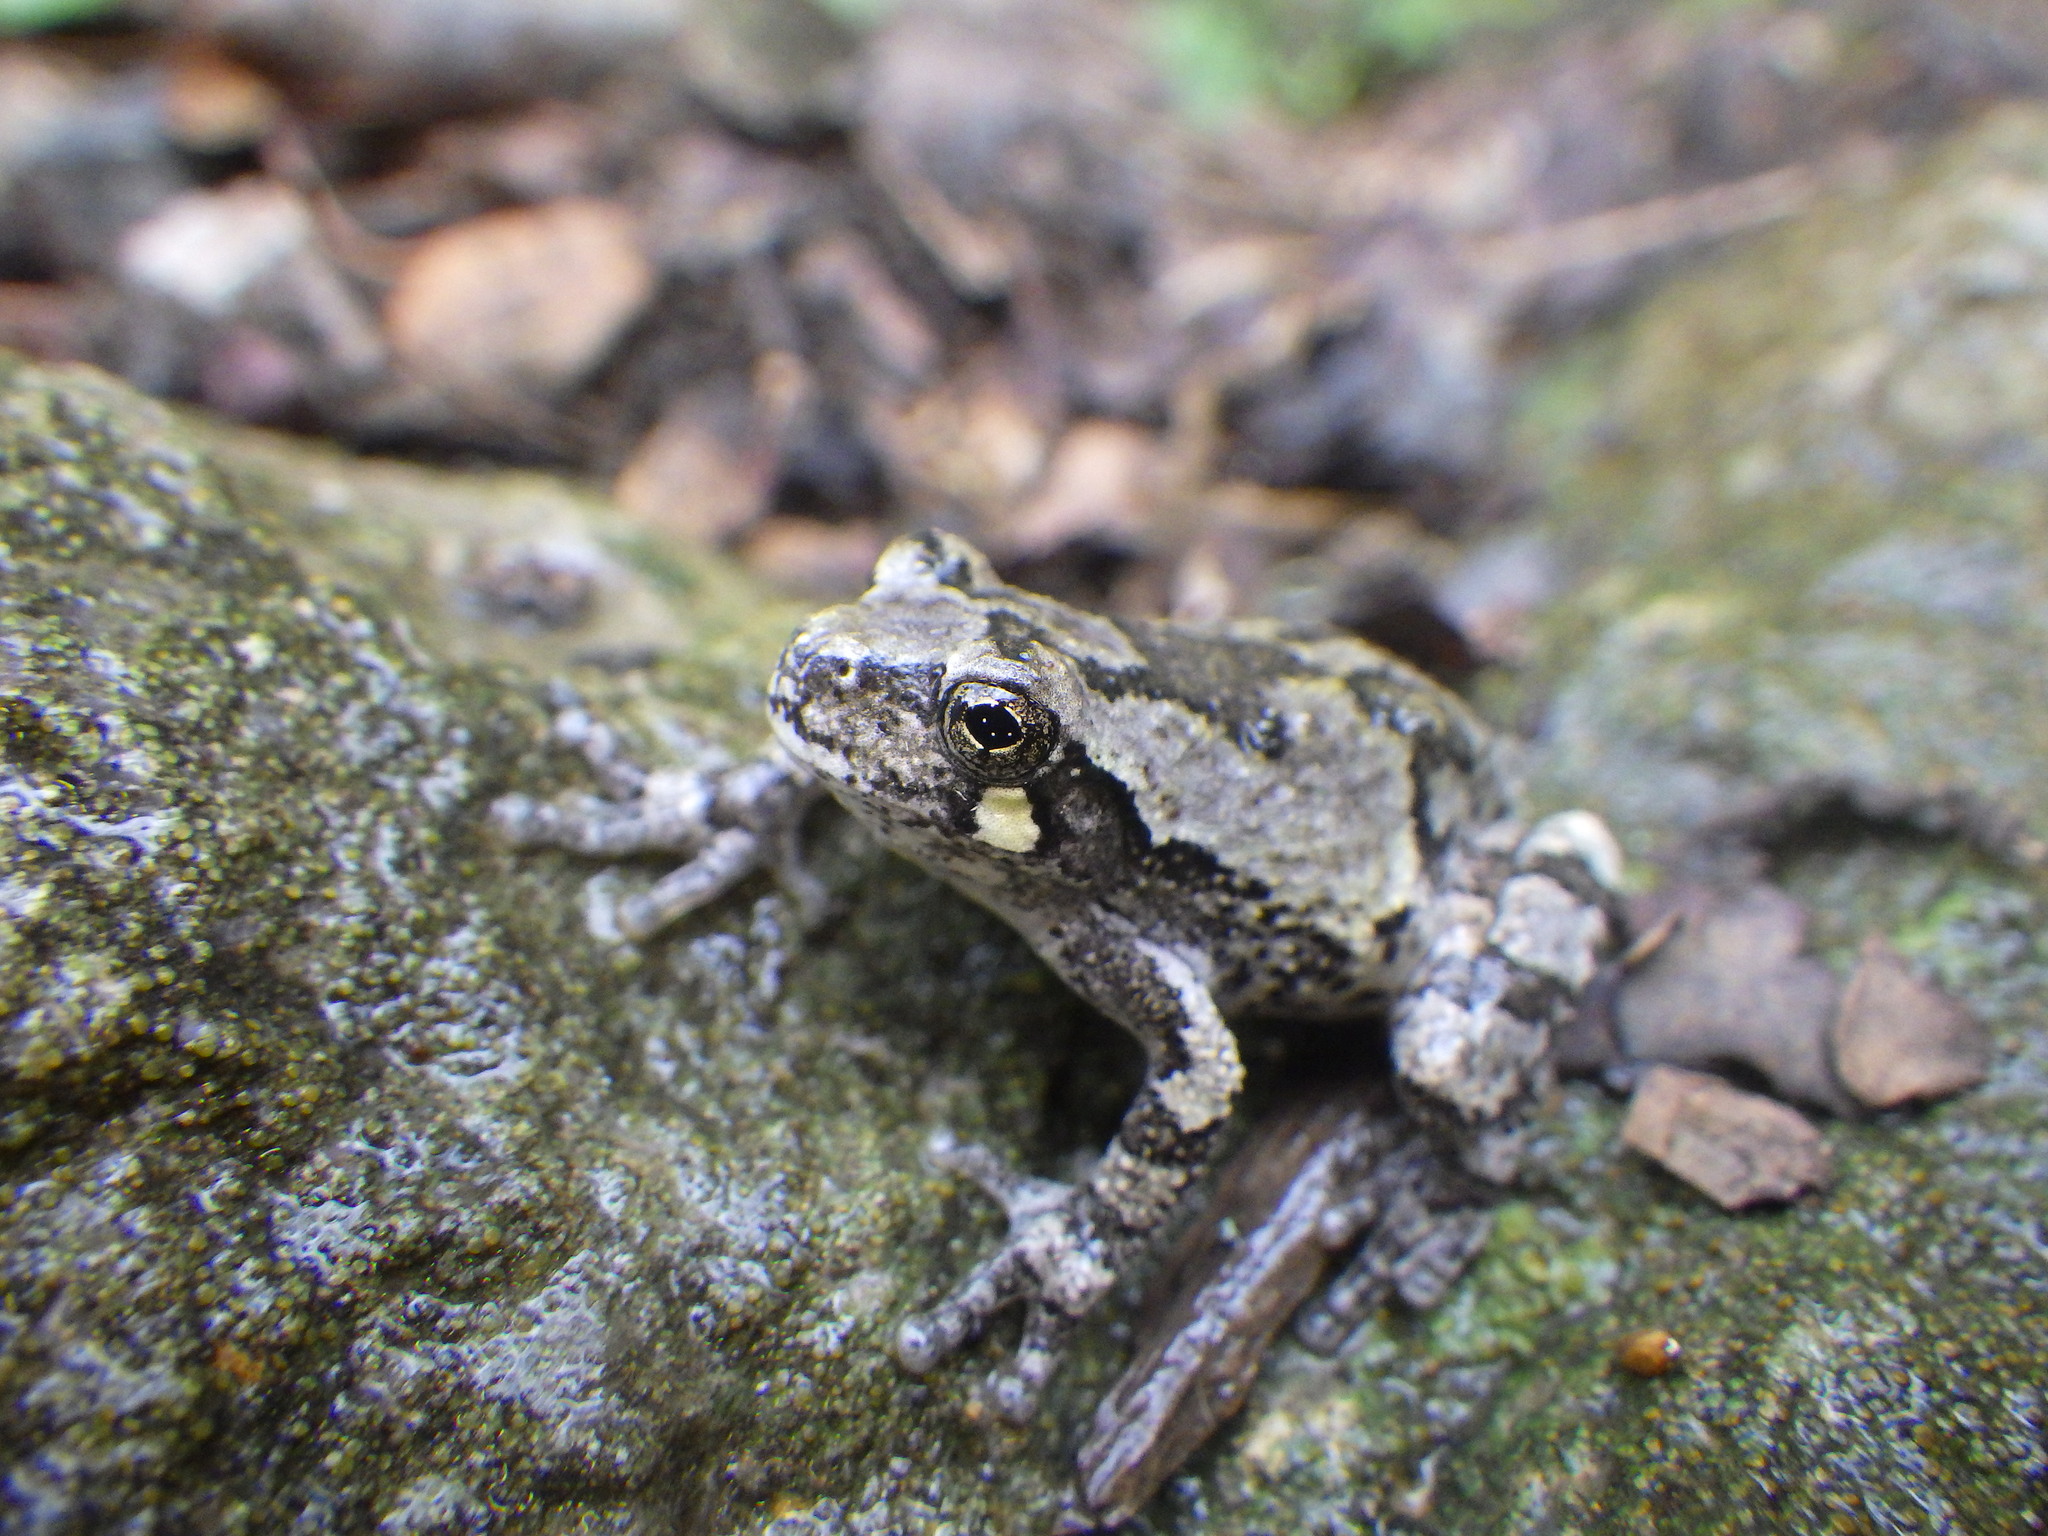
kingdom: Animalia
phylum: Chordata
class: Amphibia
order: Anura
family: Hylidae
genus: Dryophytes
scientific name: Dryophytes versicolor
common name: Gray treefrog
